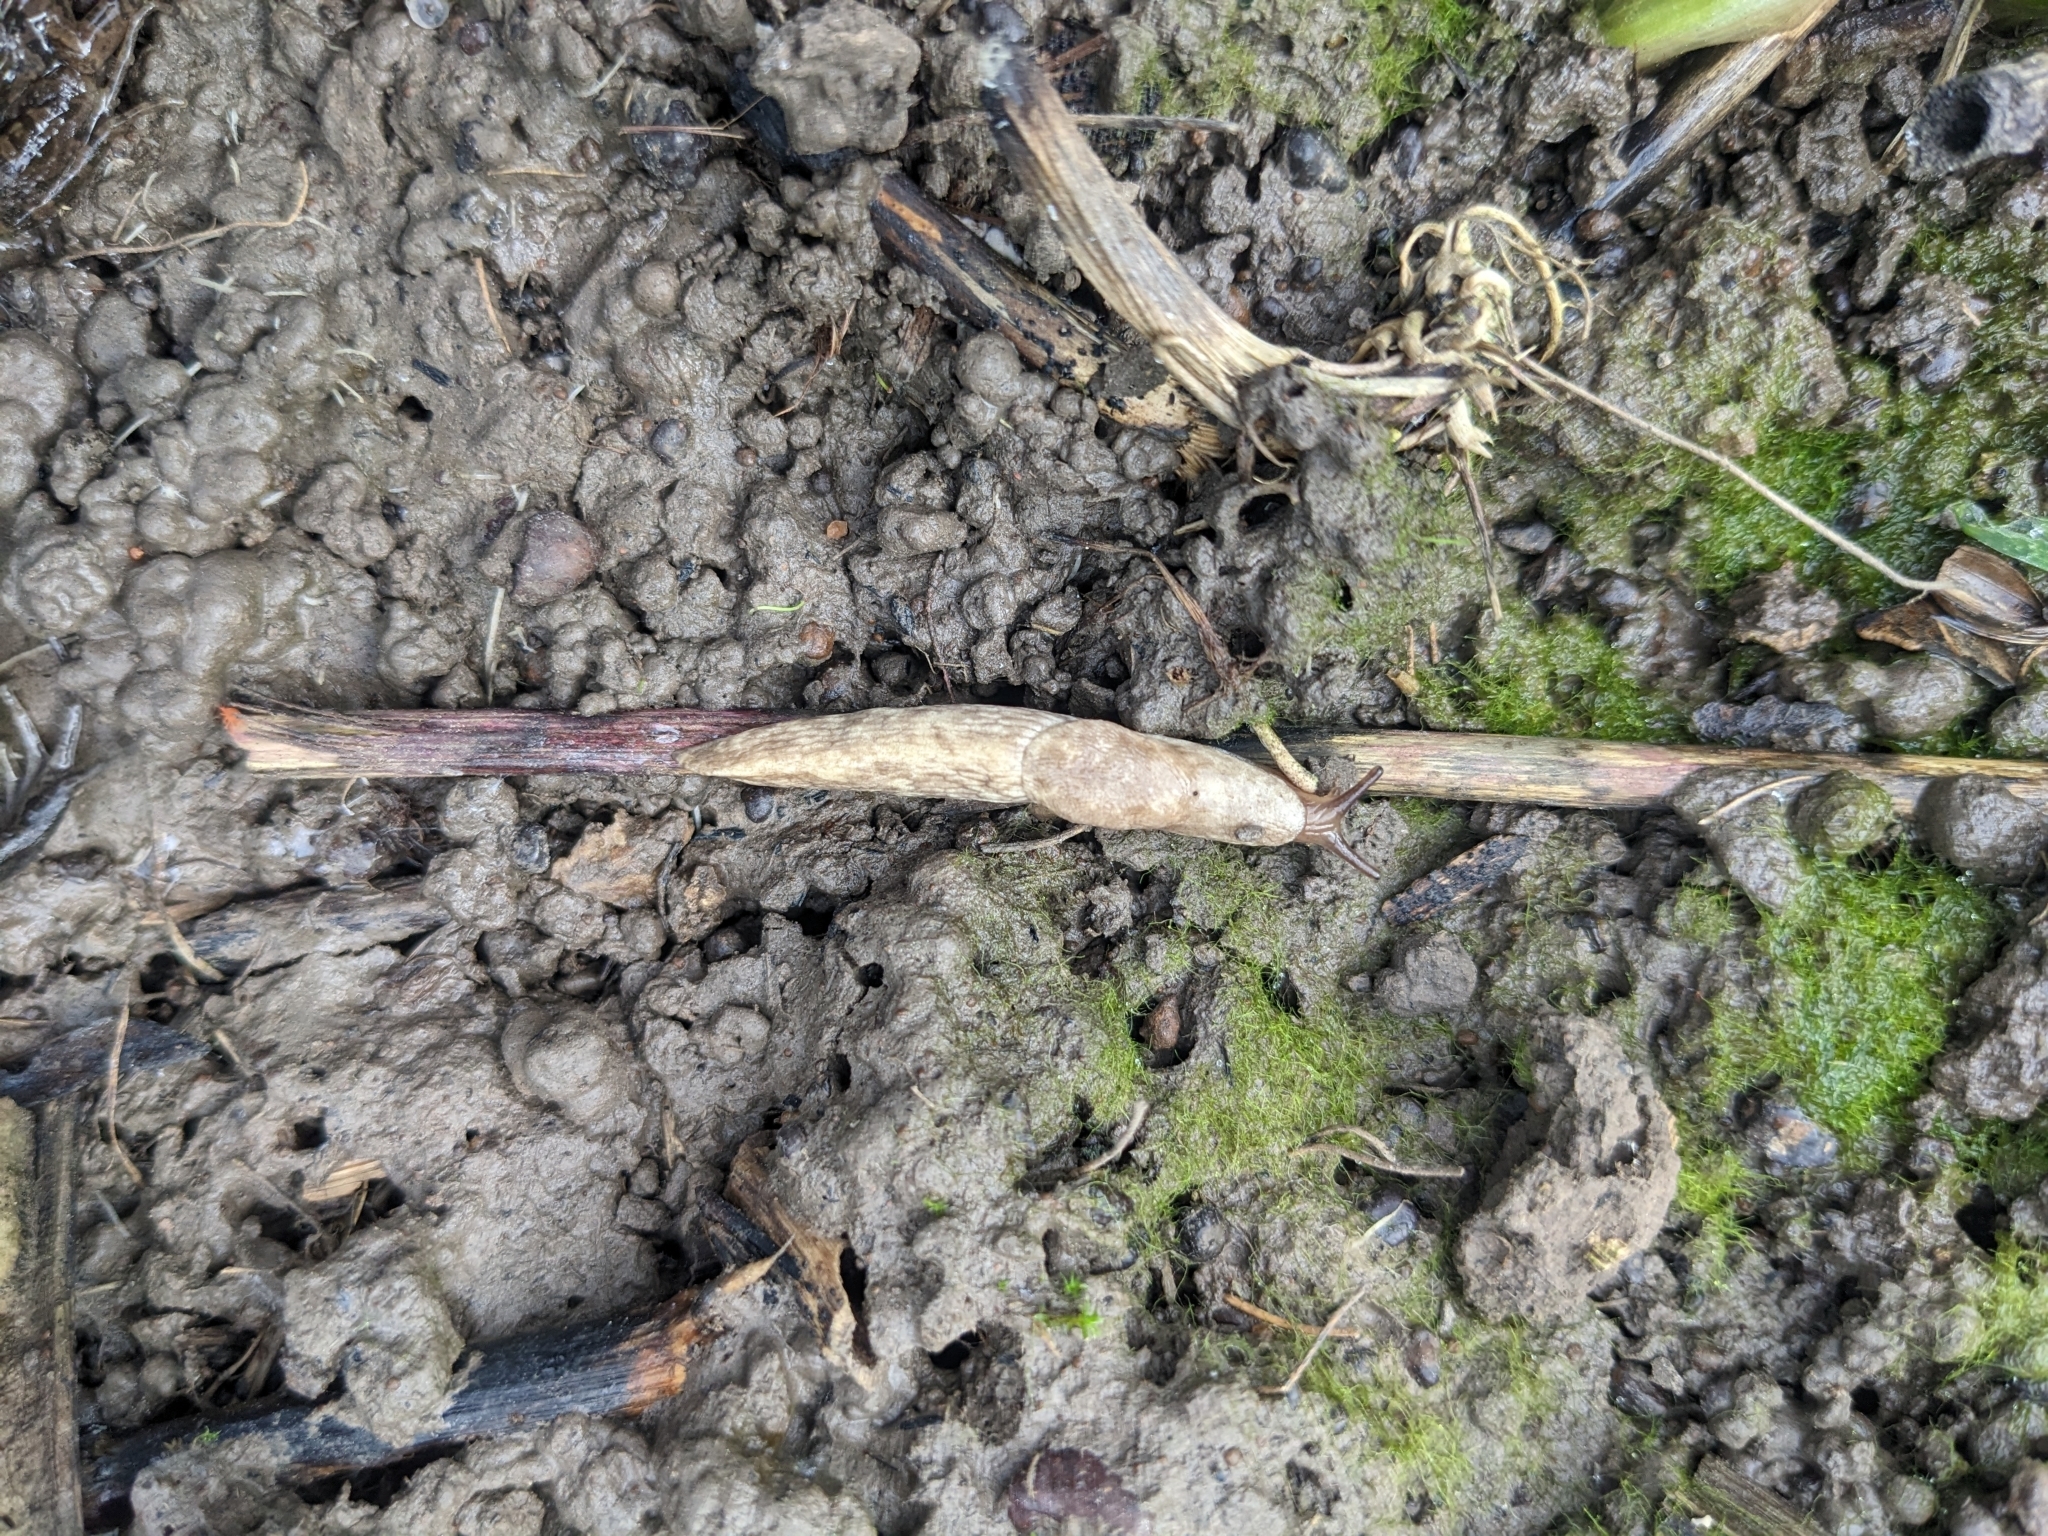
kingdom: Animalia
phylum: Mollusca
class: Gastropoda
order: Stylommatophora
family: Agriolimacidae
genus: Deroceras
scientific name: Deroceras reticulatum
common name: Gray field slug
